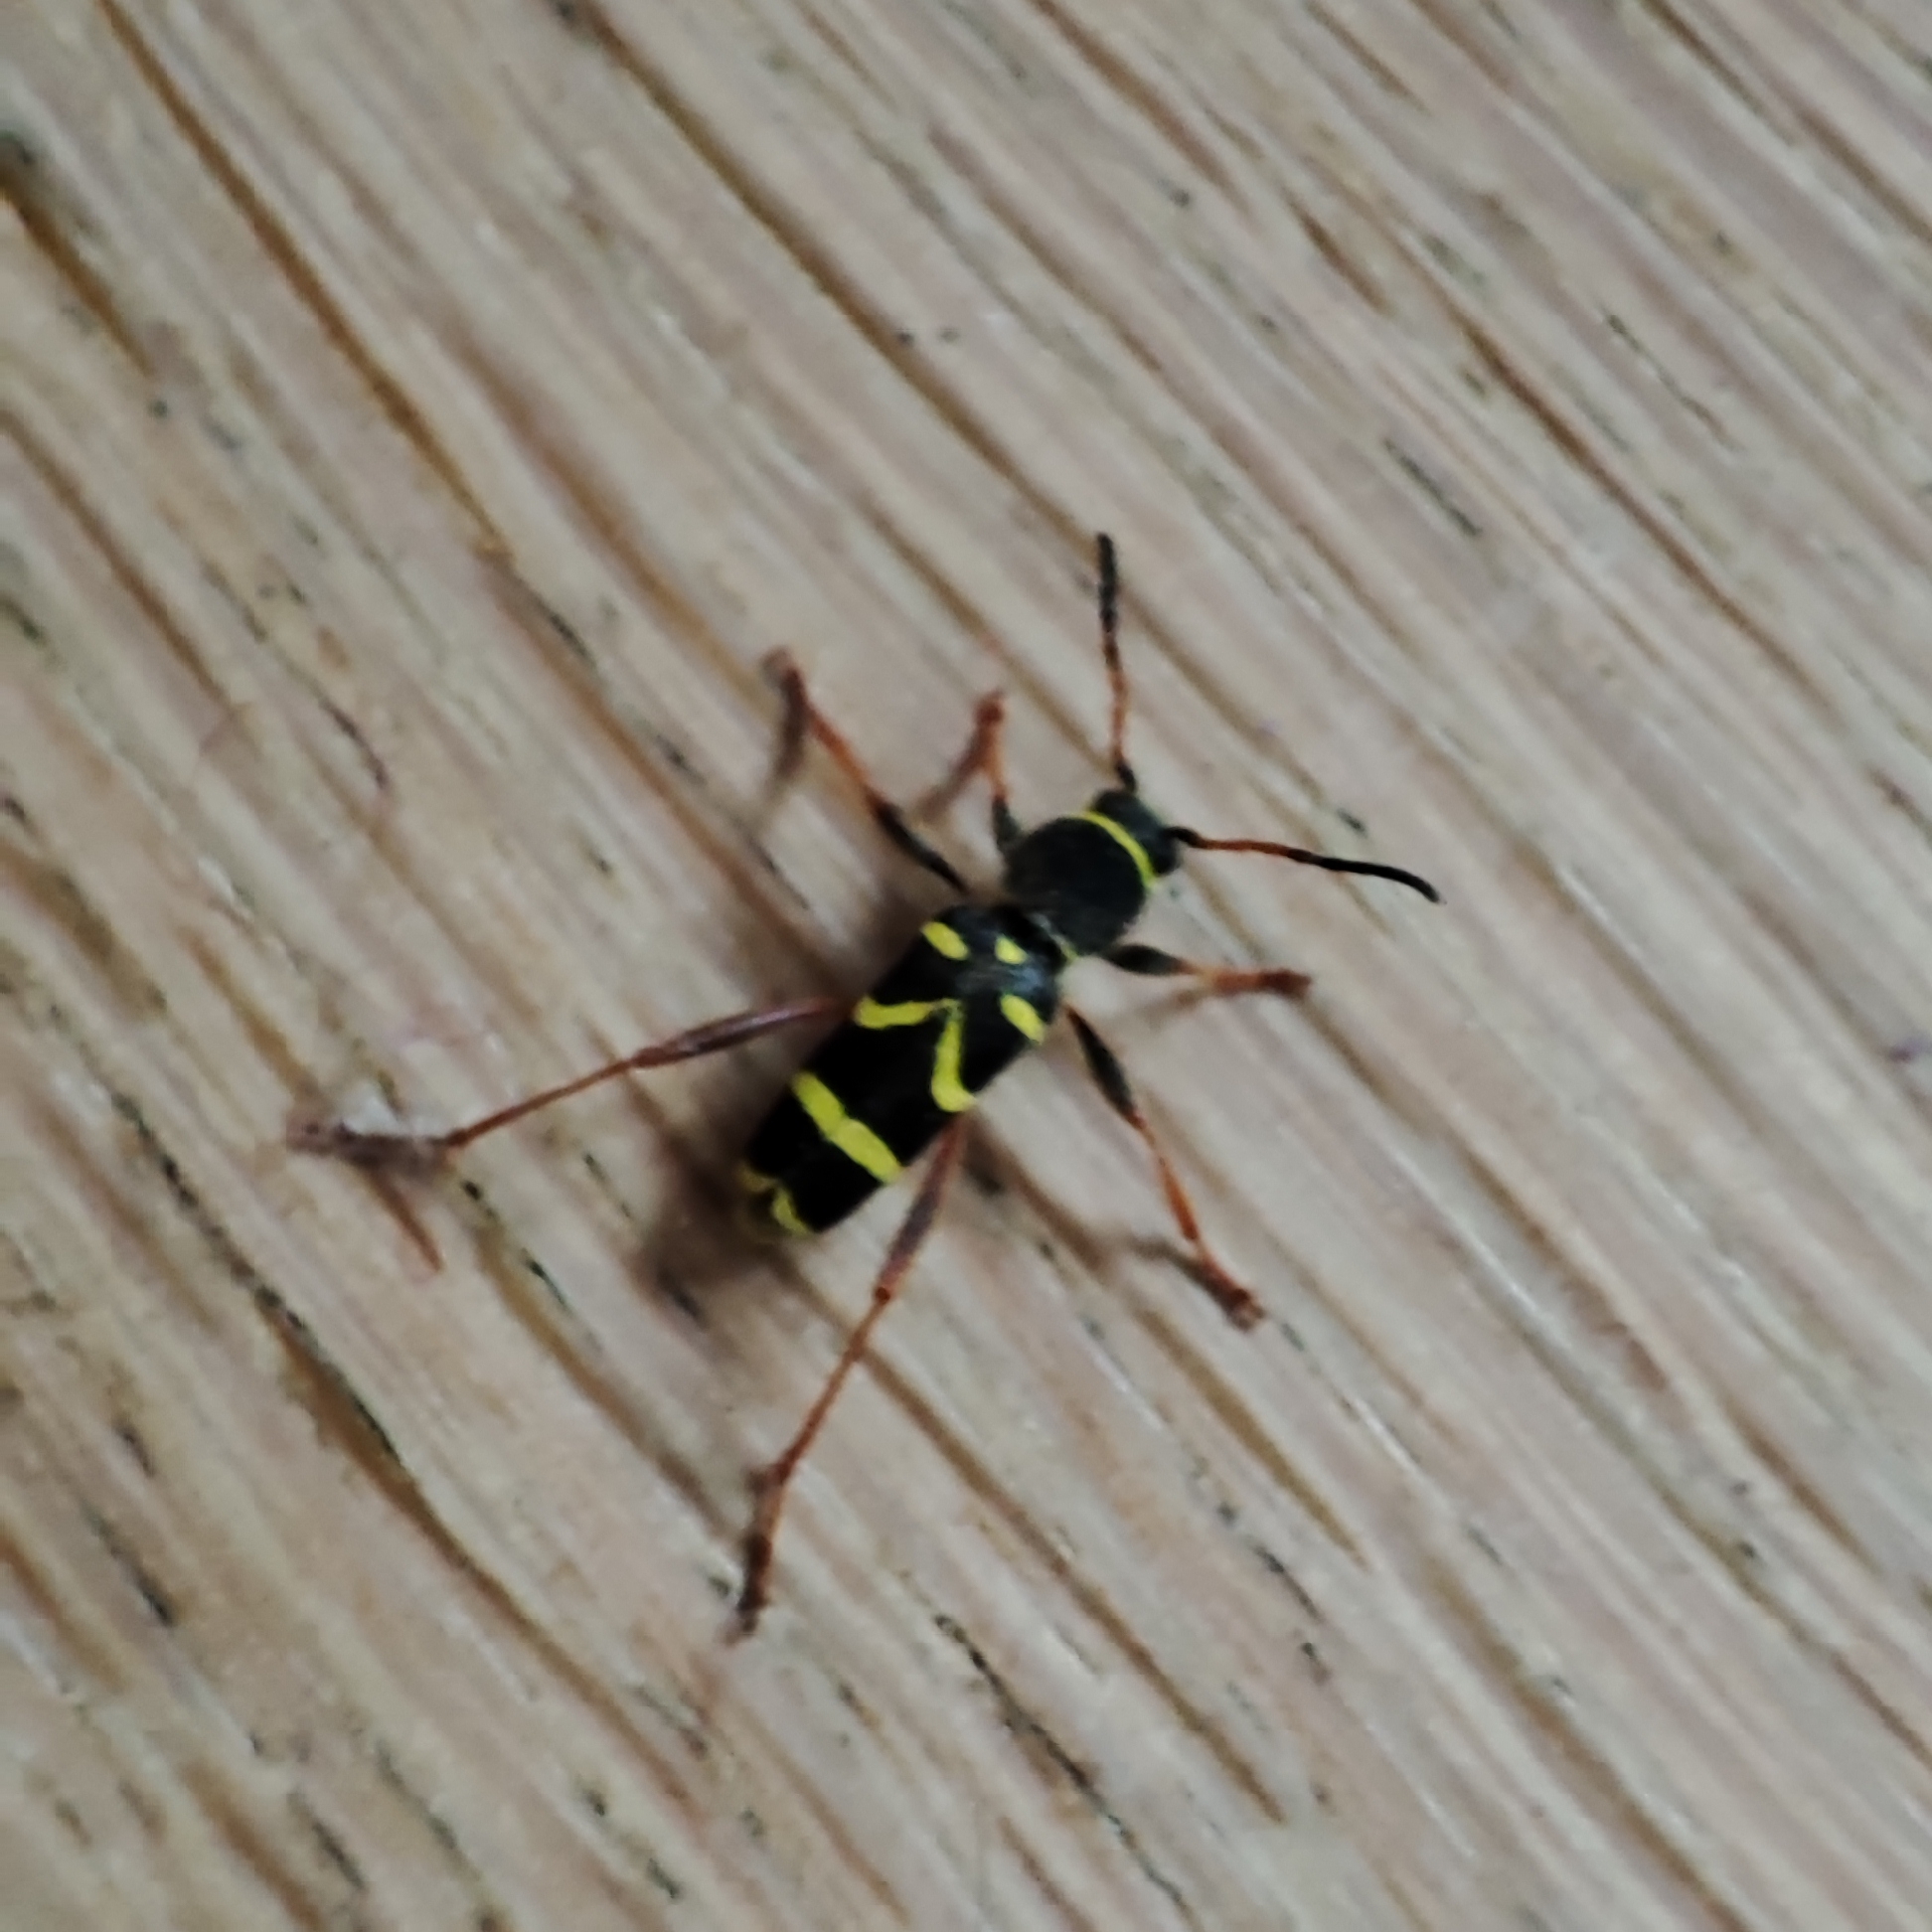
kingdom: Animalia
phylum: Arthropoda
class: Insecta
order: Coleoptera
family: Cerambycidae
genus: Clytus
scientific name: Clytus arietis
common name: Wasp beetle
